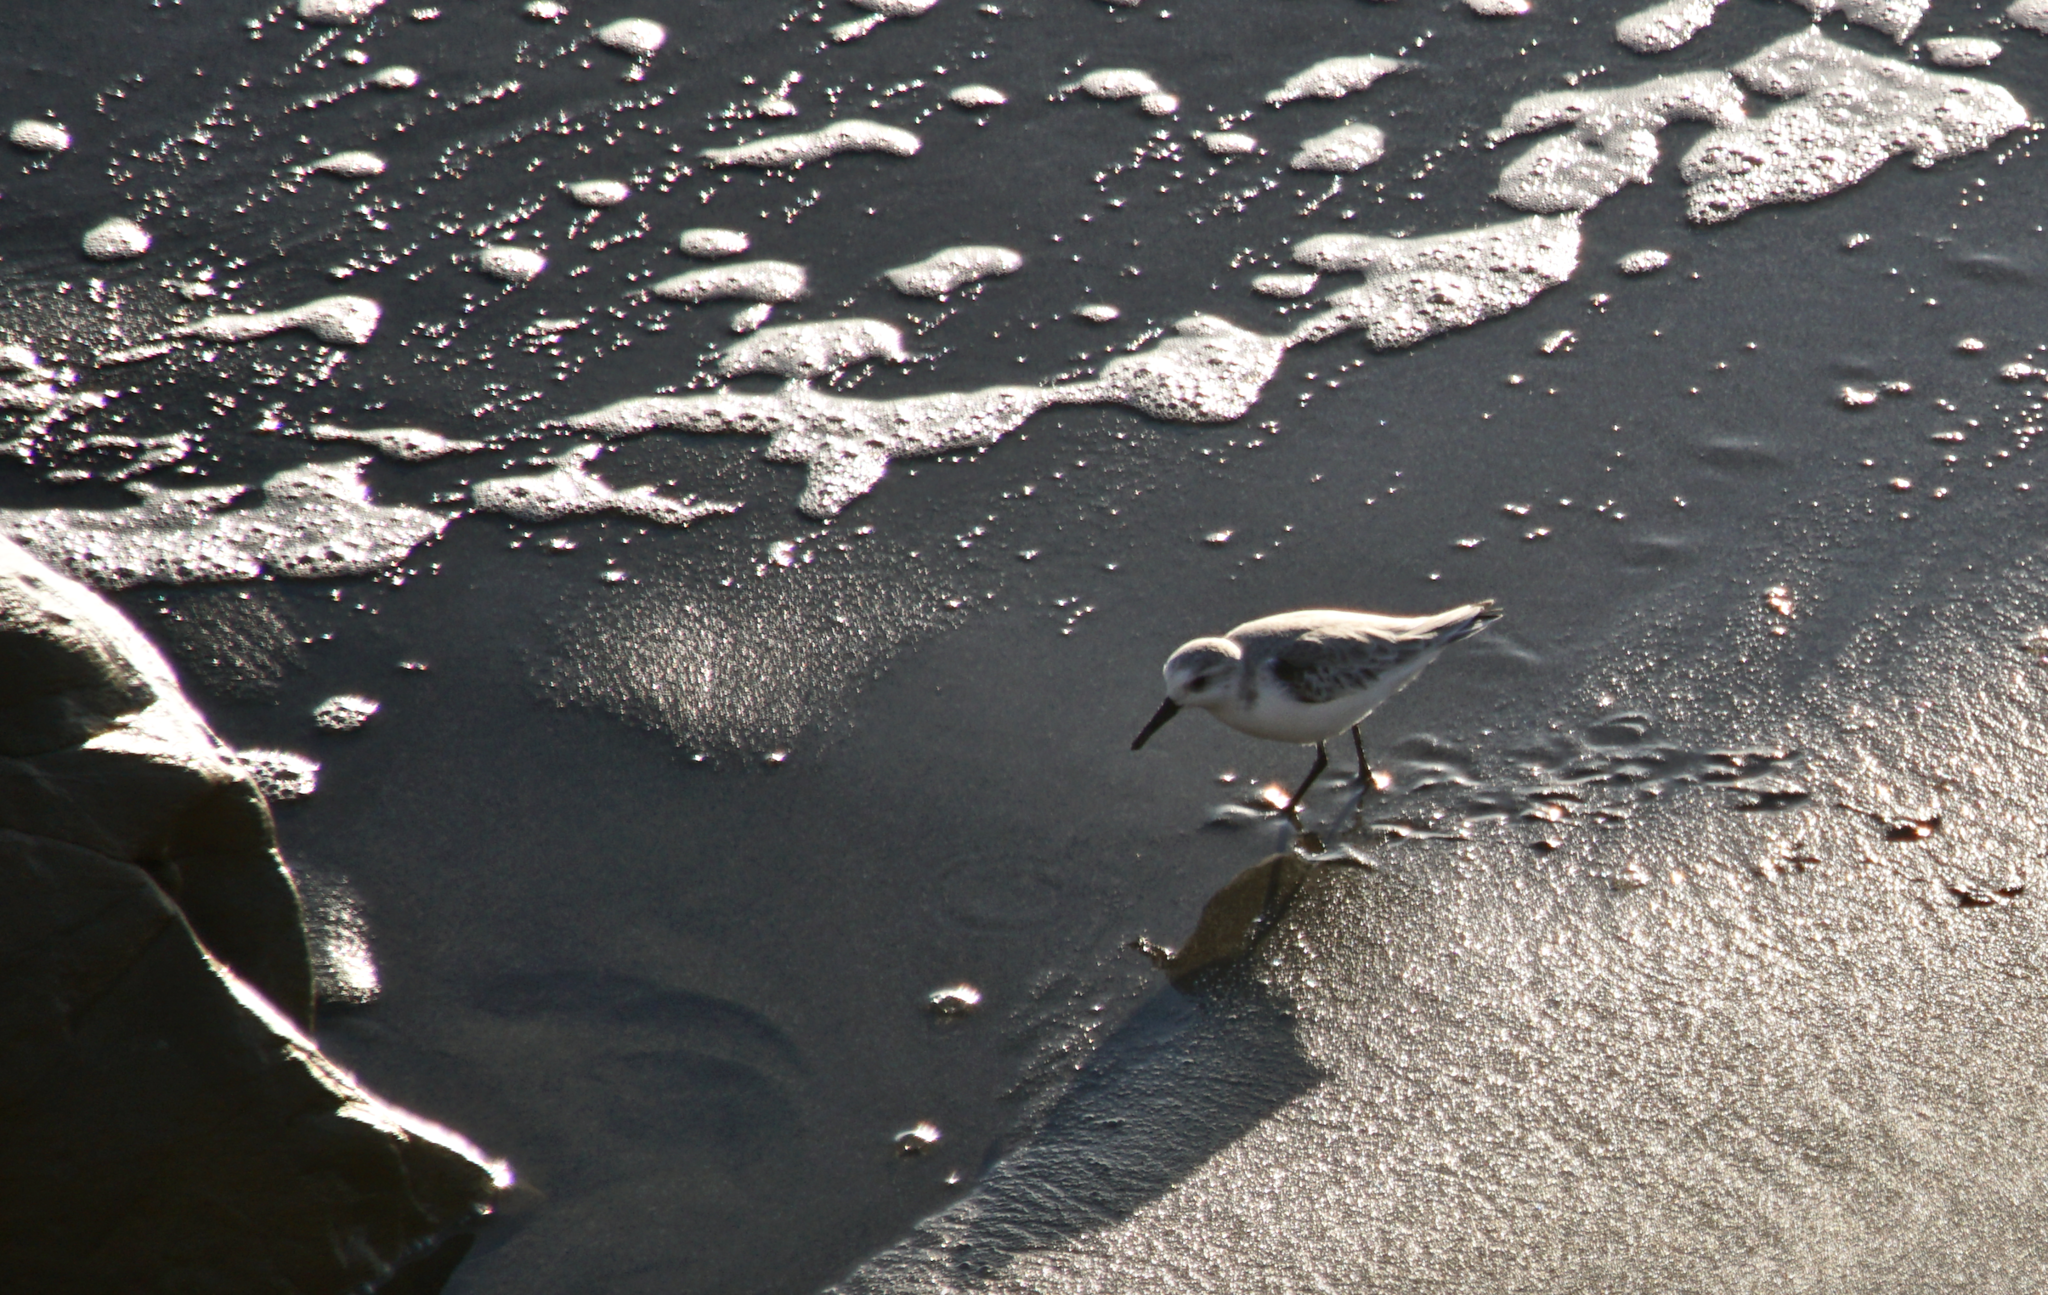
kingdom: Animalia
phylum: Chordata
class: Aves
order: Charadriiformes
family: Scolopacidae
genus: Calidris
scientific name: Calidris alba
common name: Sanderling
